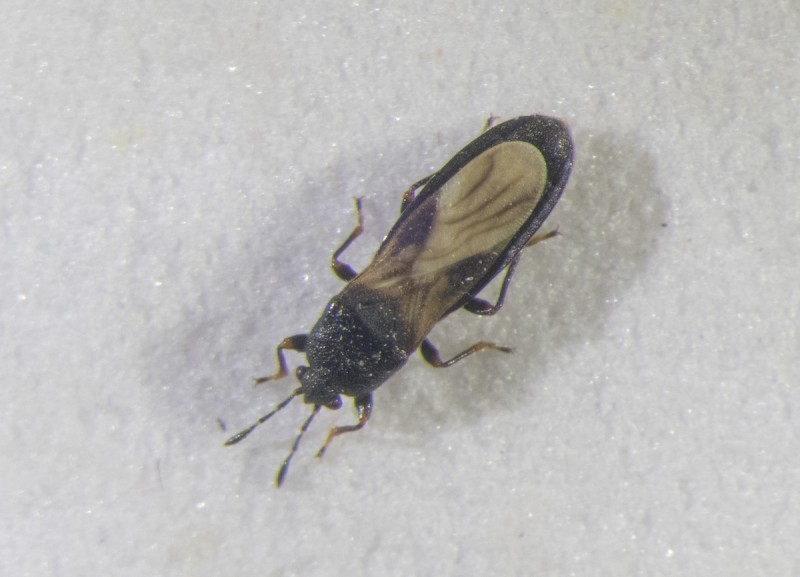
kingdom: Animalia
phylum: Arthropoda
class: Insecta
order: Hemiptera
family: Blissidae
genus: Dimorphopterus
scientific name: Dimorphopterus spinolae
